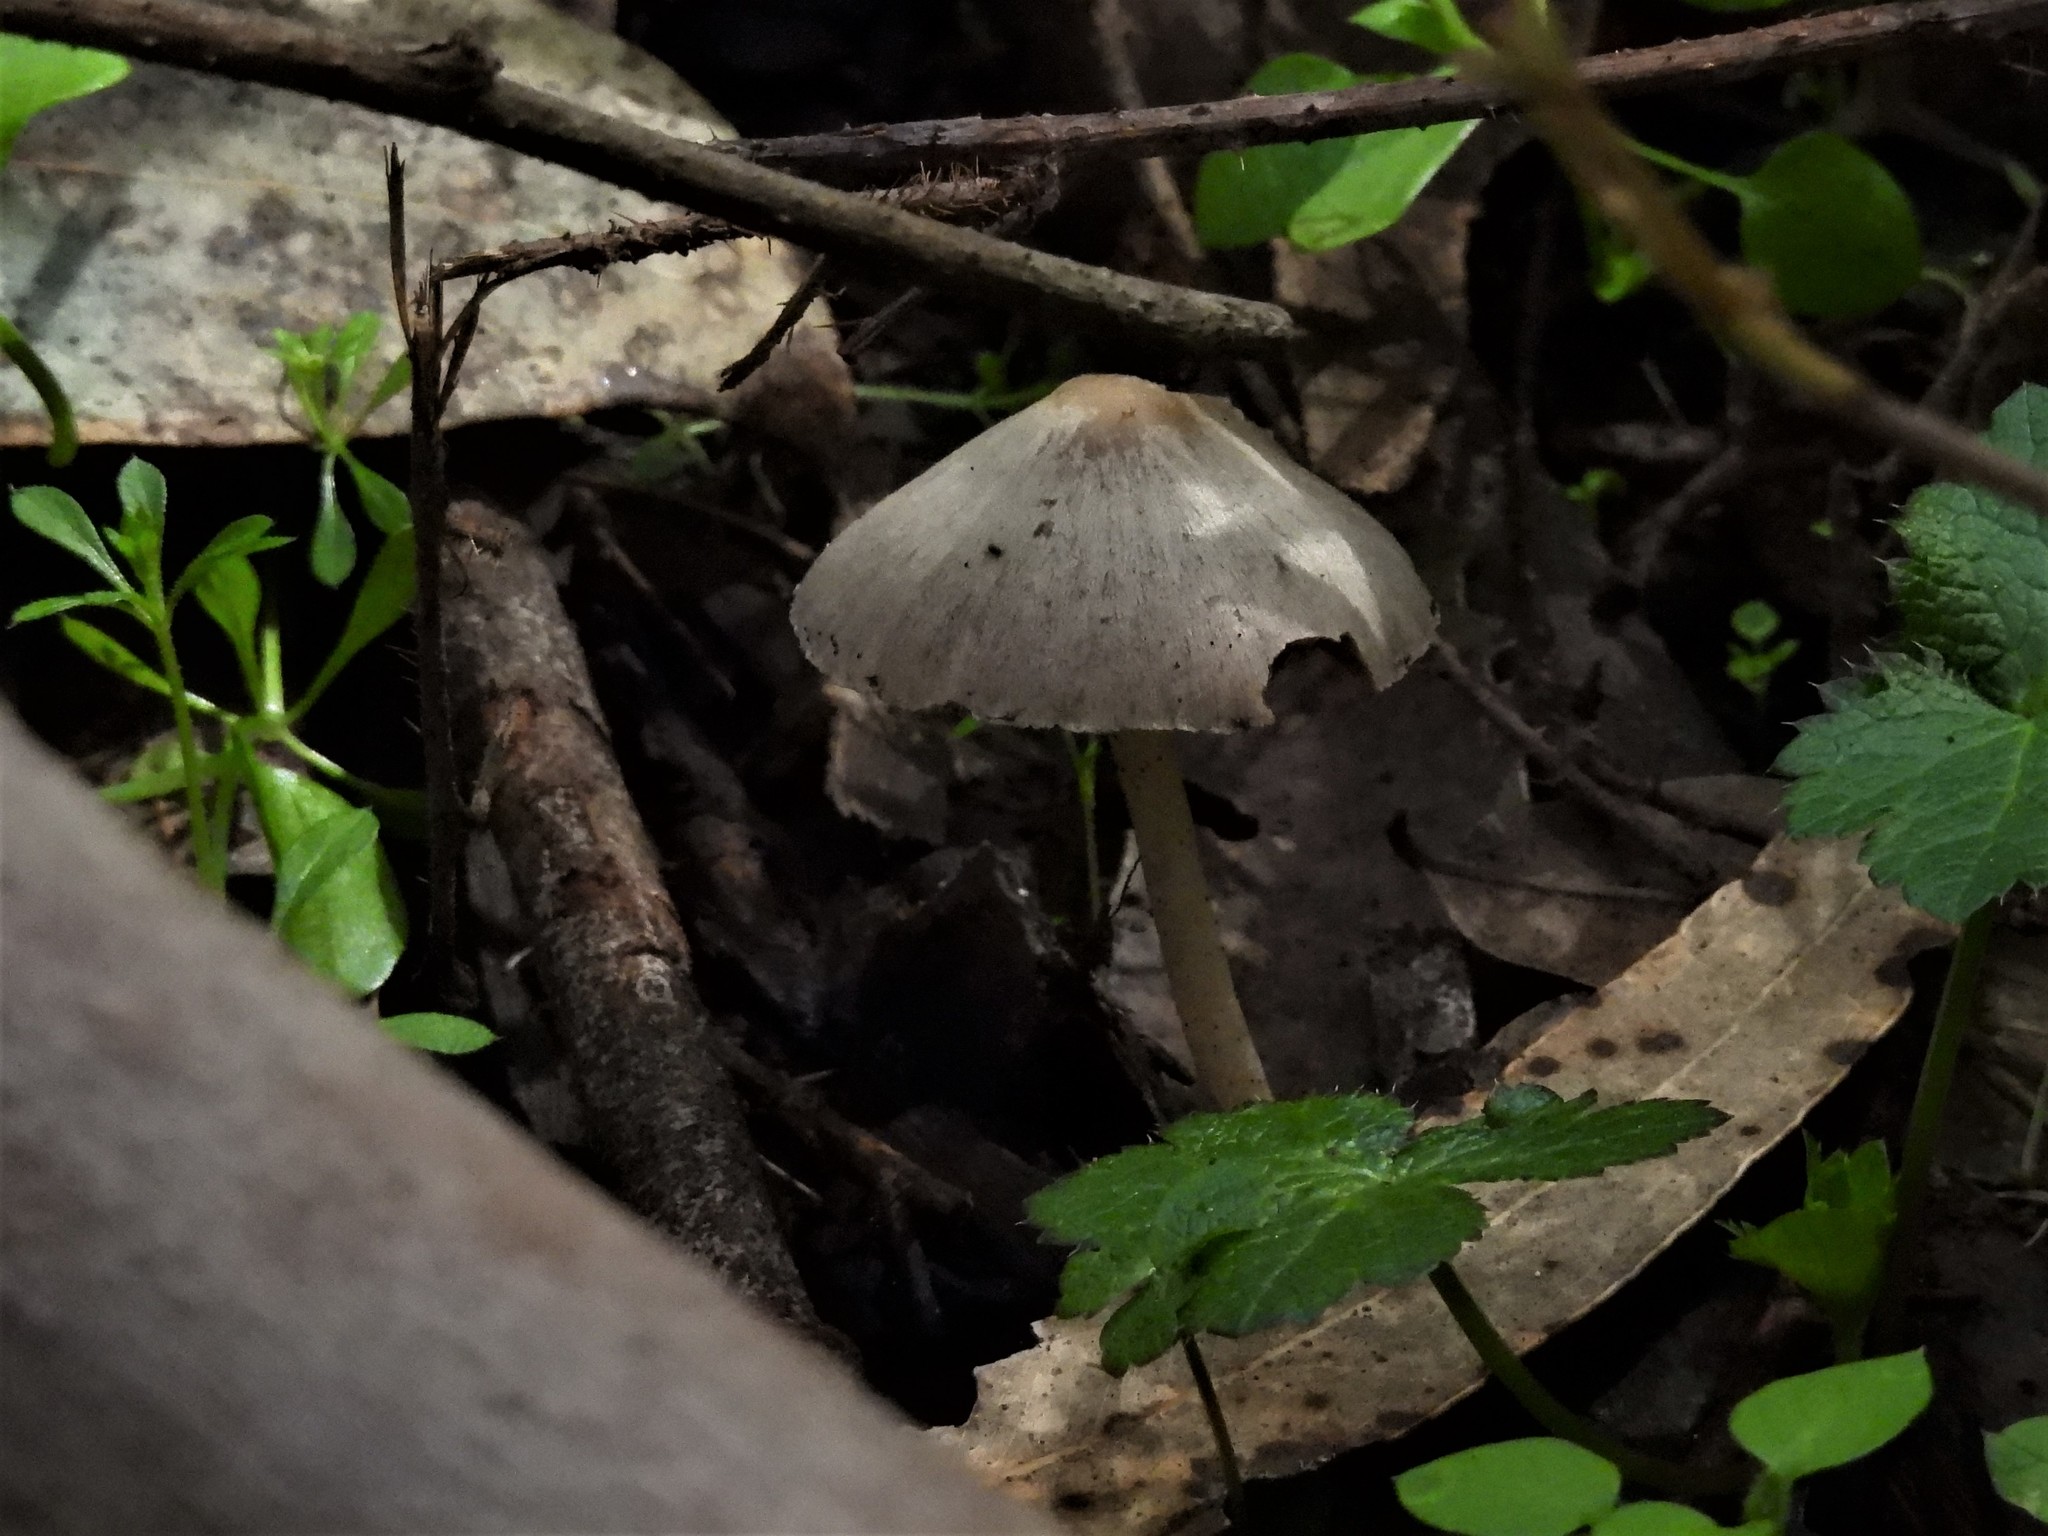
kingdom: Fungi
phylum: Basidiomycota
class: Agaricomycetes
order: Agaricales
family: Psathyrellaceae
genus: Psathyrella
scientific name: Psathyrella longipes
